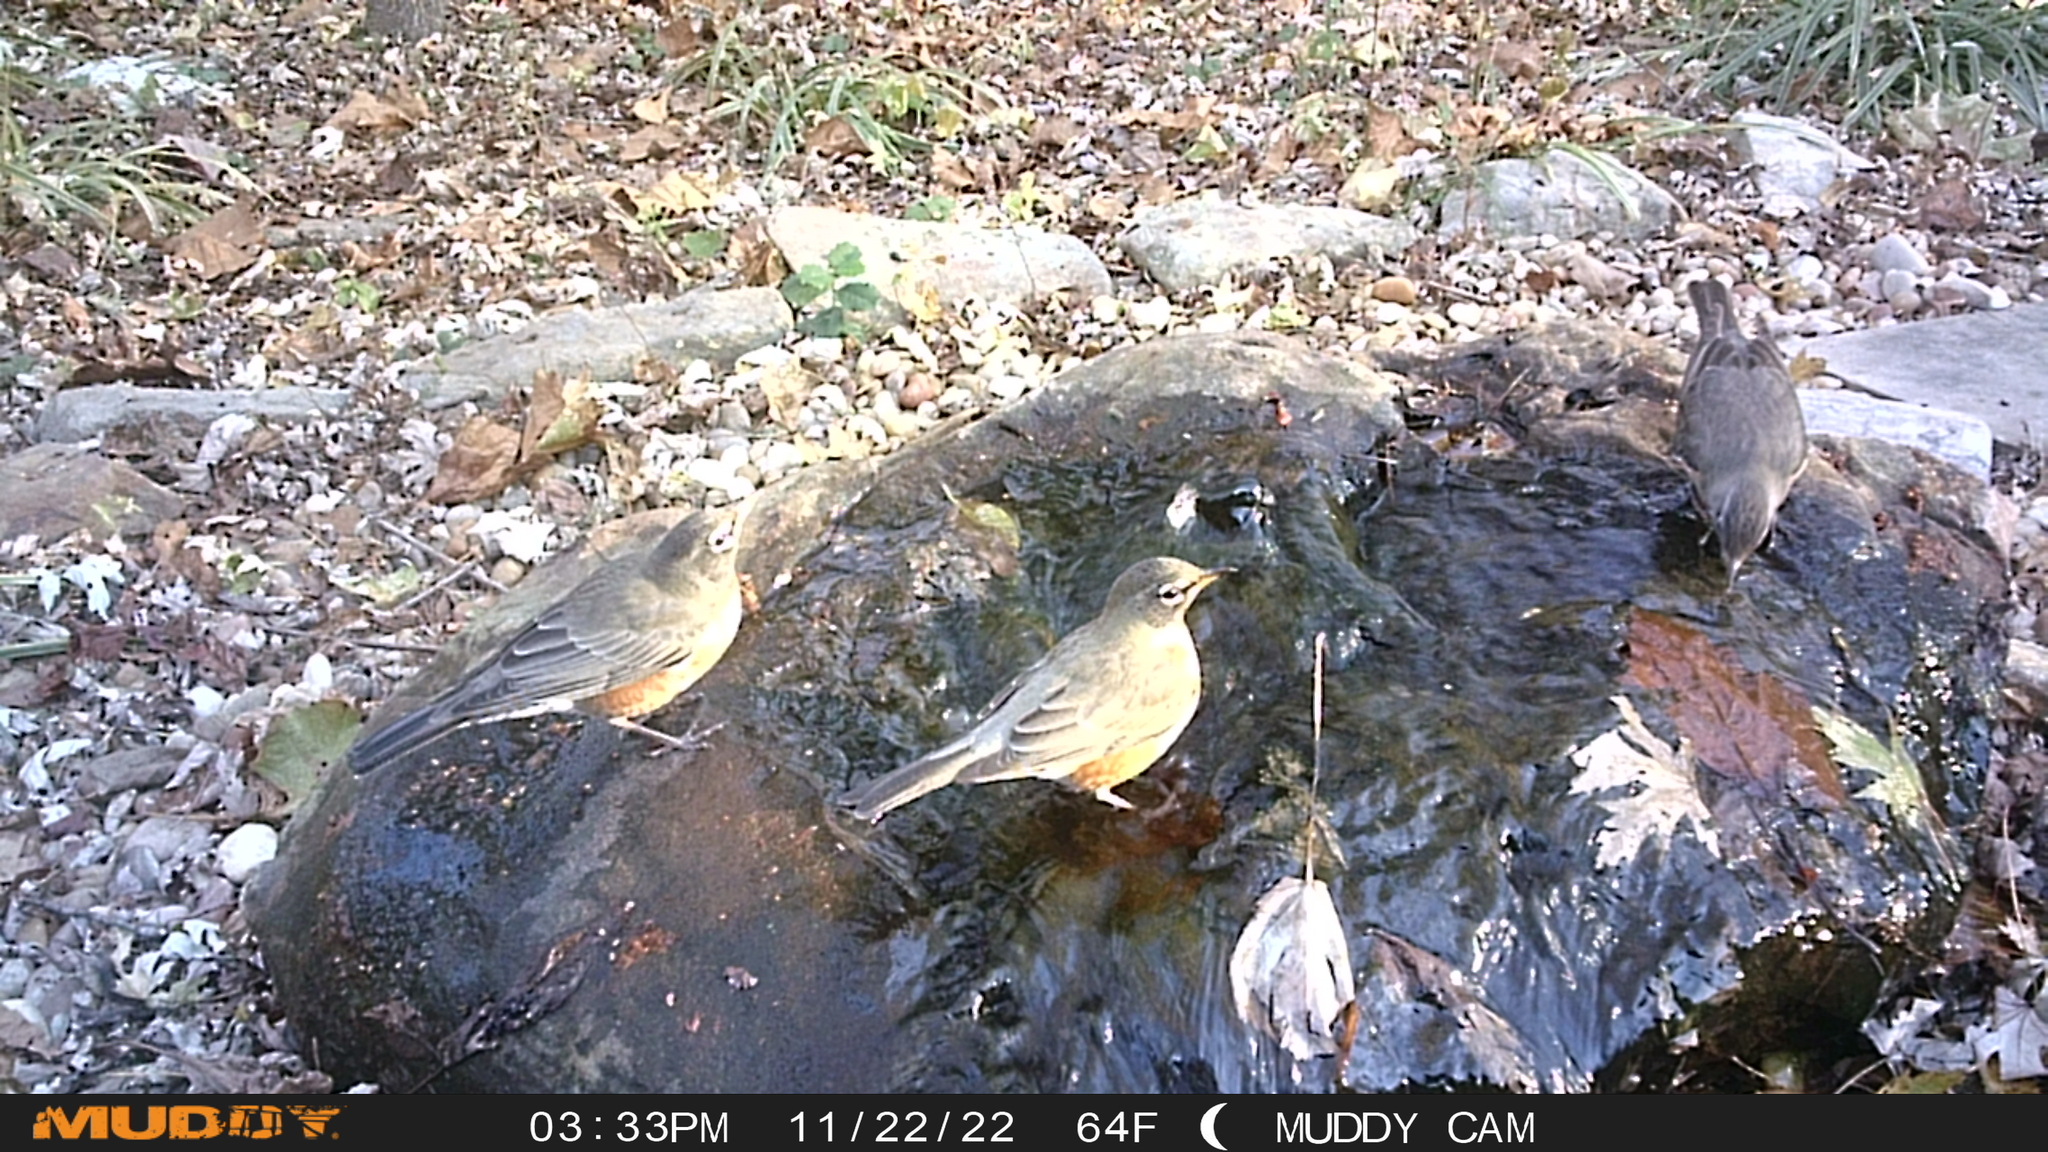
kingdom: Animalia
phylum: Chordata
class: Aves
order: Passeriformes
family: Turdidae
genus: Turdus
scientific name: Turdus migratorius
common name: American robin
